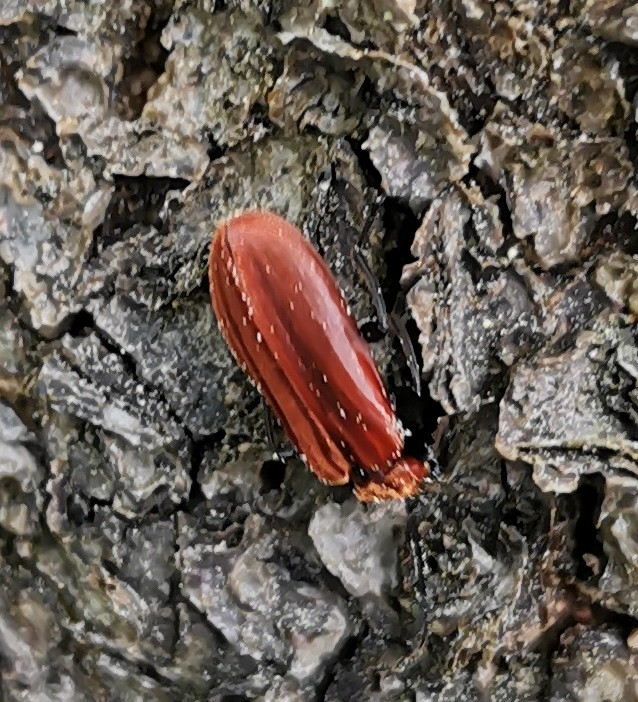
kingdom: Animalia
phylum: Arthropoda
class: Insecta
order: Coleoptera
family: Pyrochroidae
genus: Schizotus
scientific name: Schizotus pectinicornis
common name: Scarce cardinal beetle
